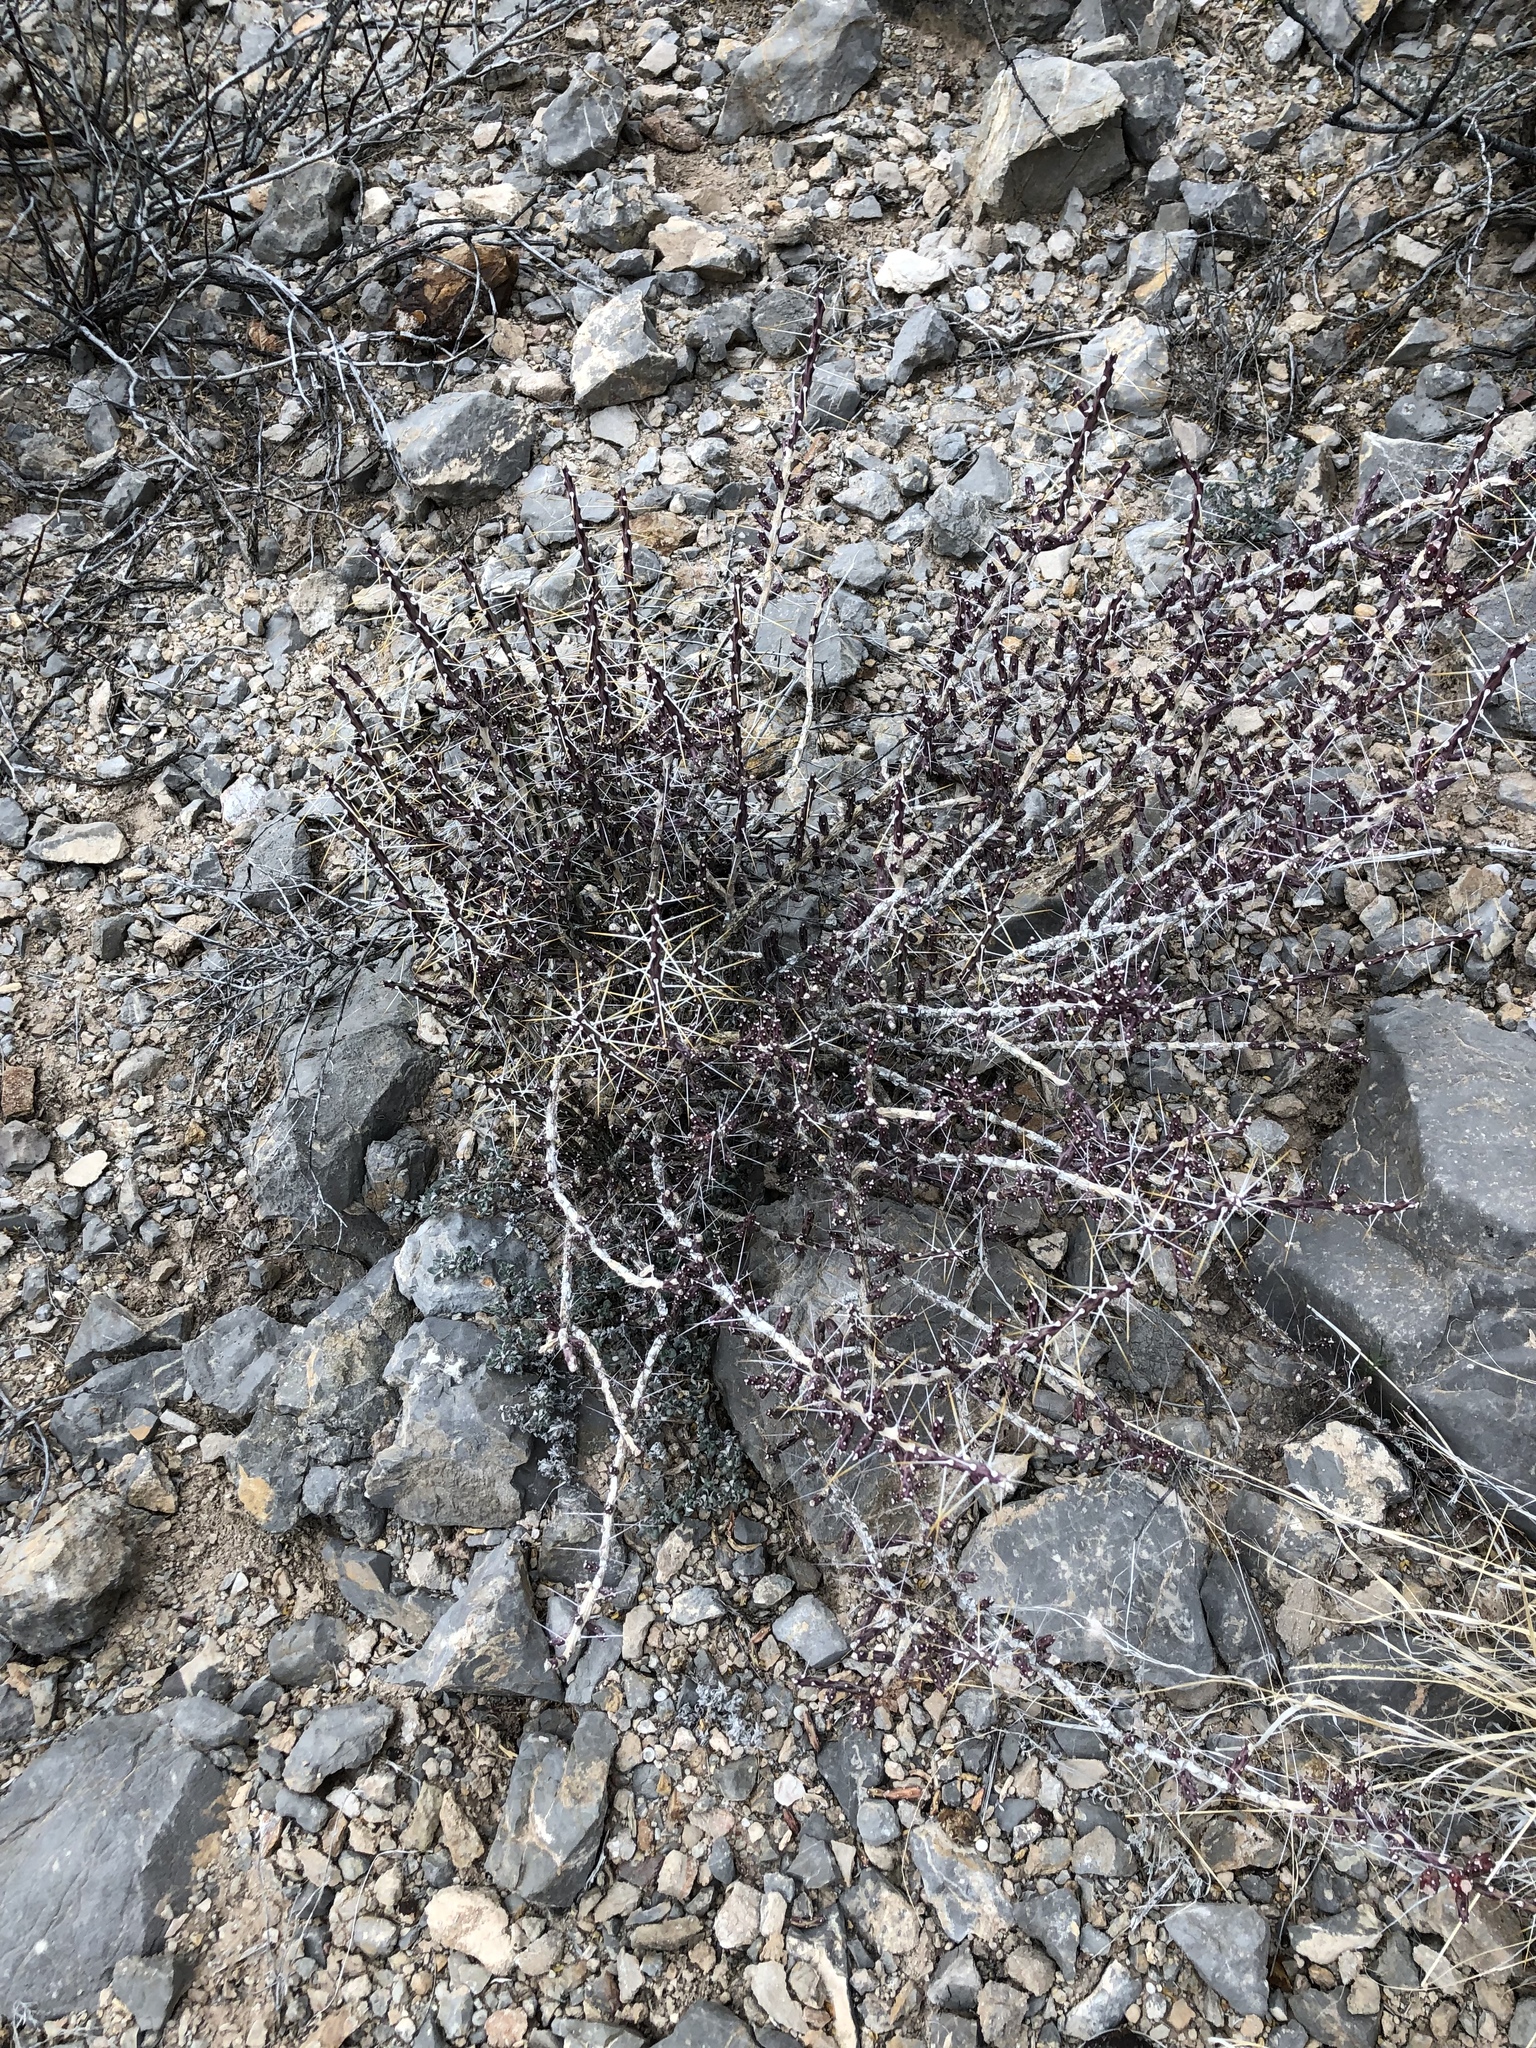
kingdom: Plantae
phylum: Tracheophyta
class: Magnoliopsida
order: Caryophyllales
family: Cactaceae
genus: Cylindropuntia
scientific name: Cylindropuntia leptocaulis
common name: Christmas cactus
